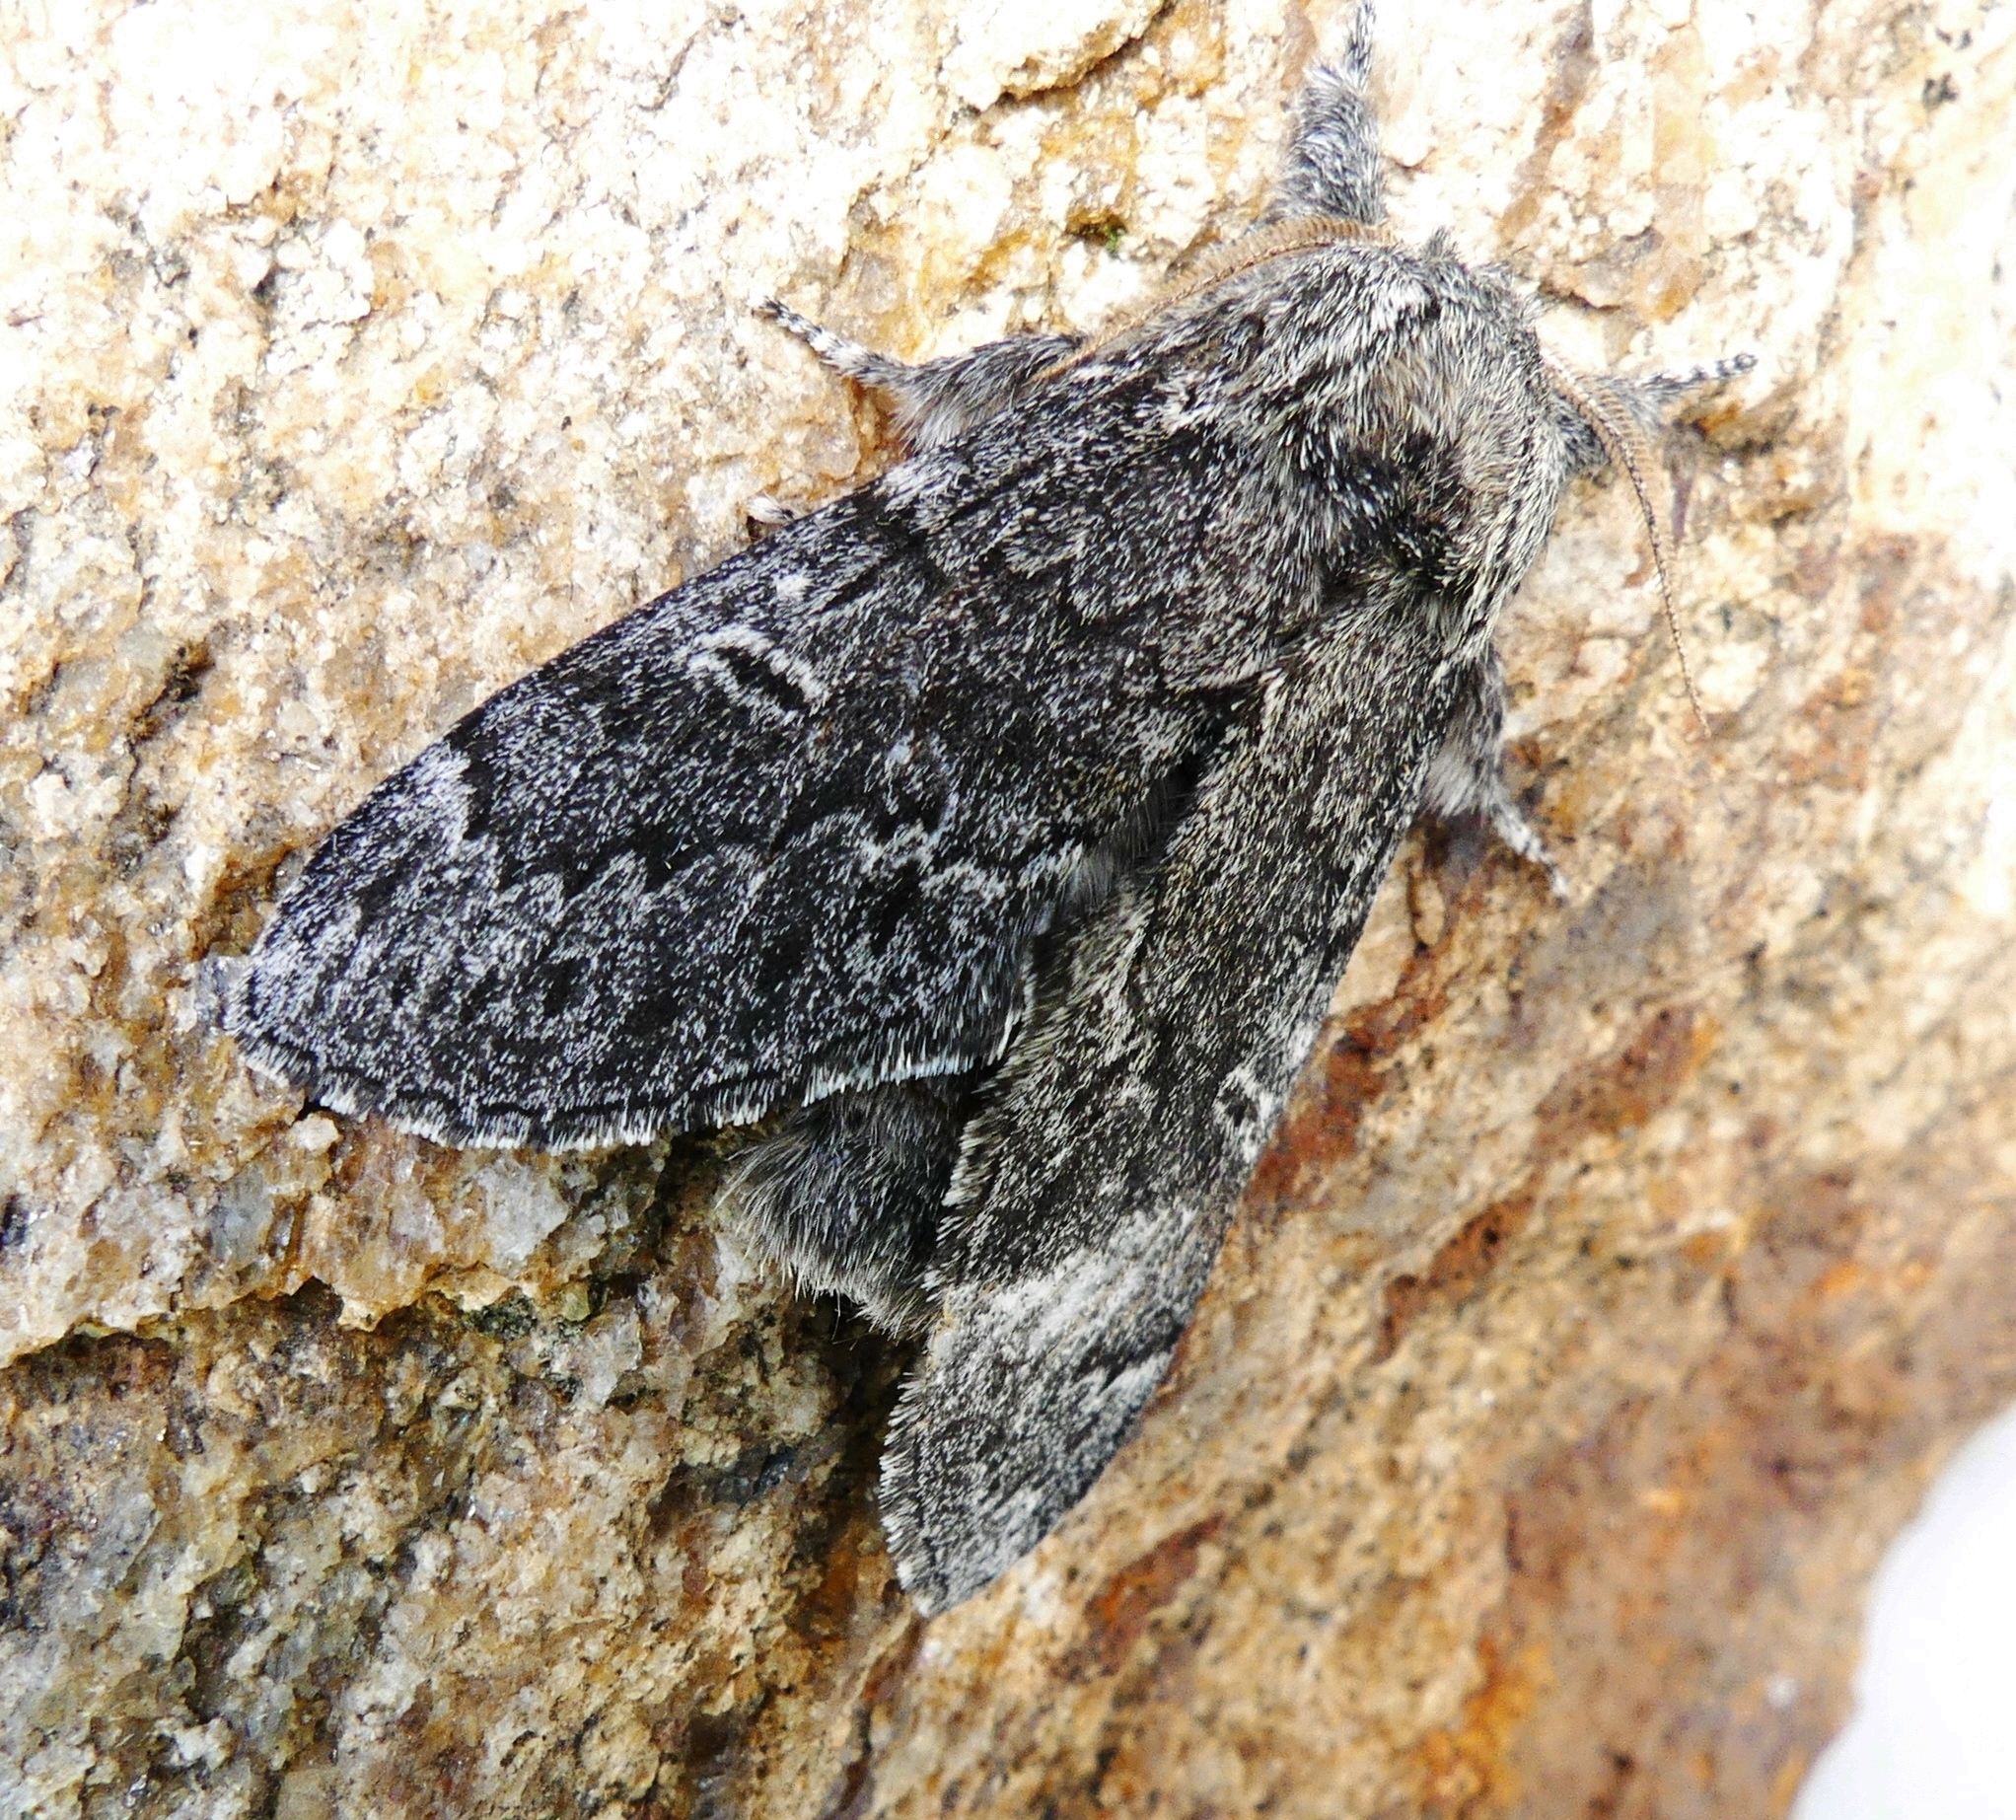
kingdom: Animalia
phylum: Arthropoda
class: Insecta
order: Lepidoptera
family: Notodontidae
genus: Notodonta
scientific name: Notodonta torva
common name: Large dark prominent
